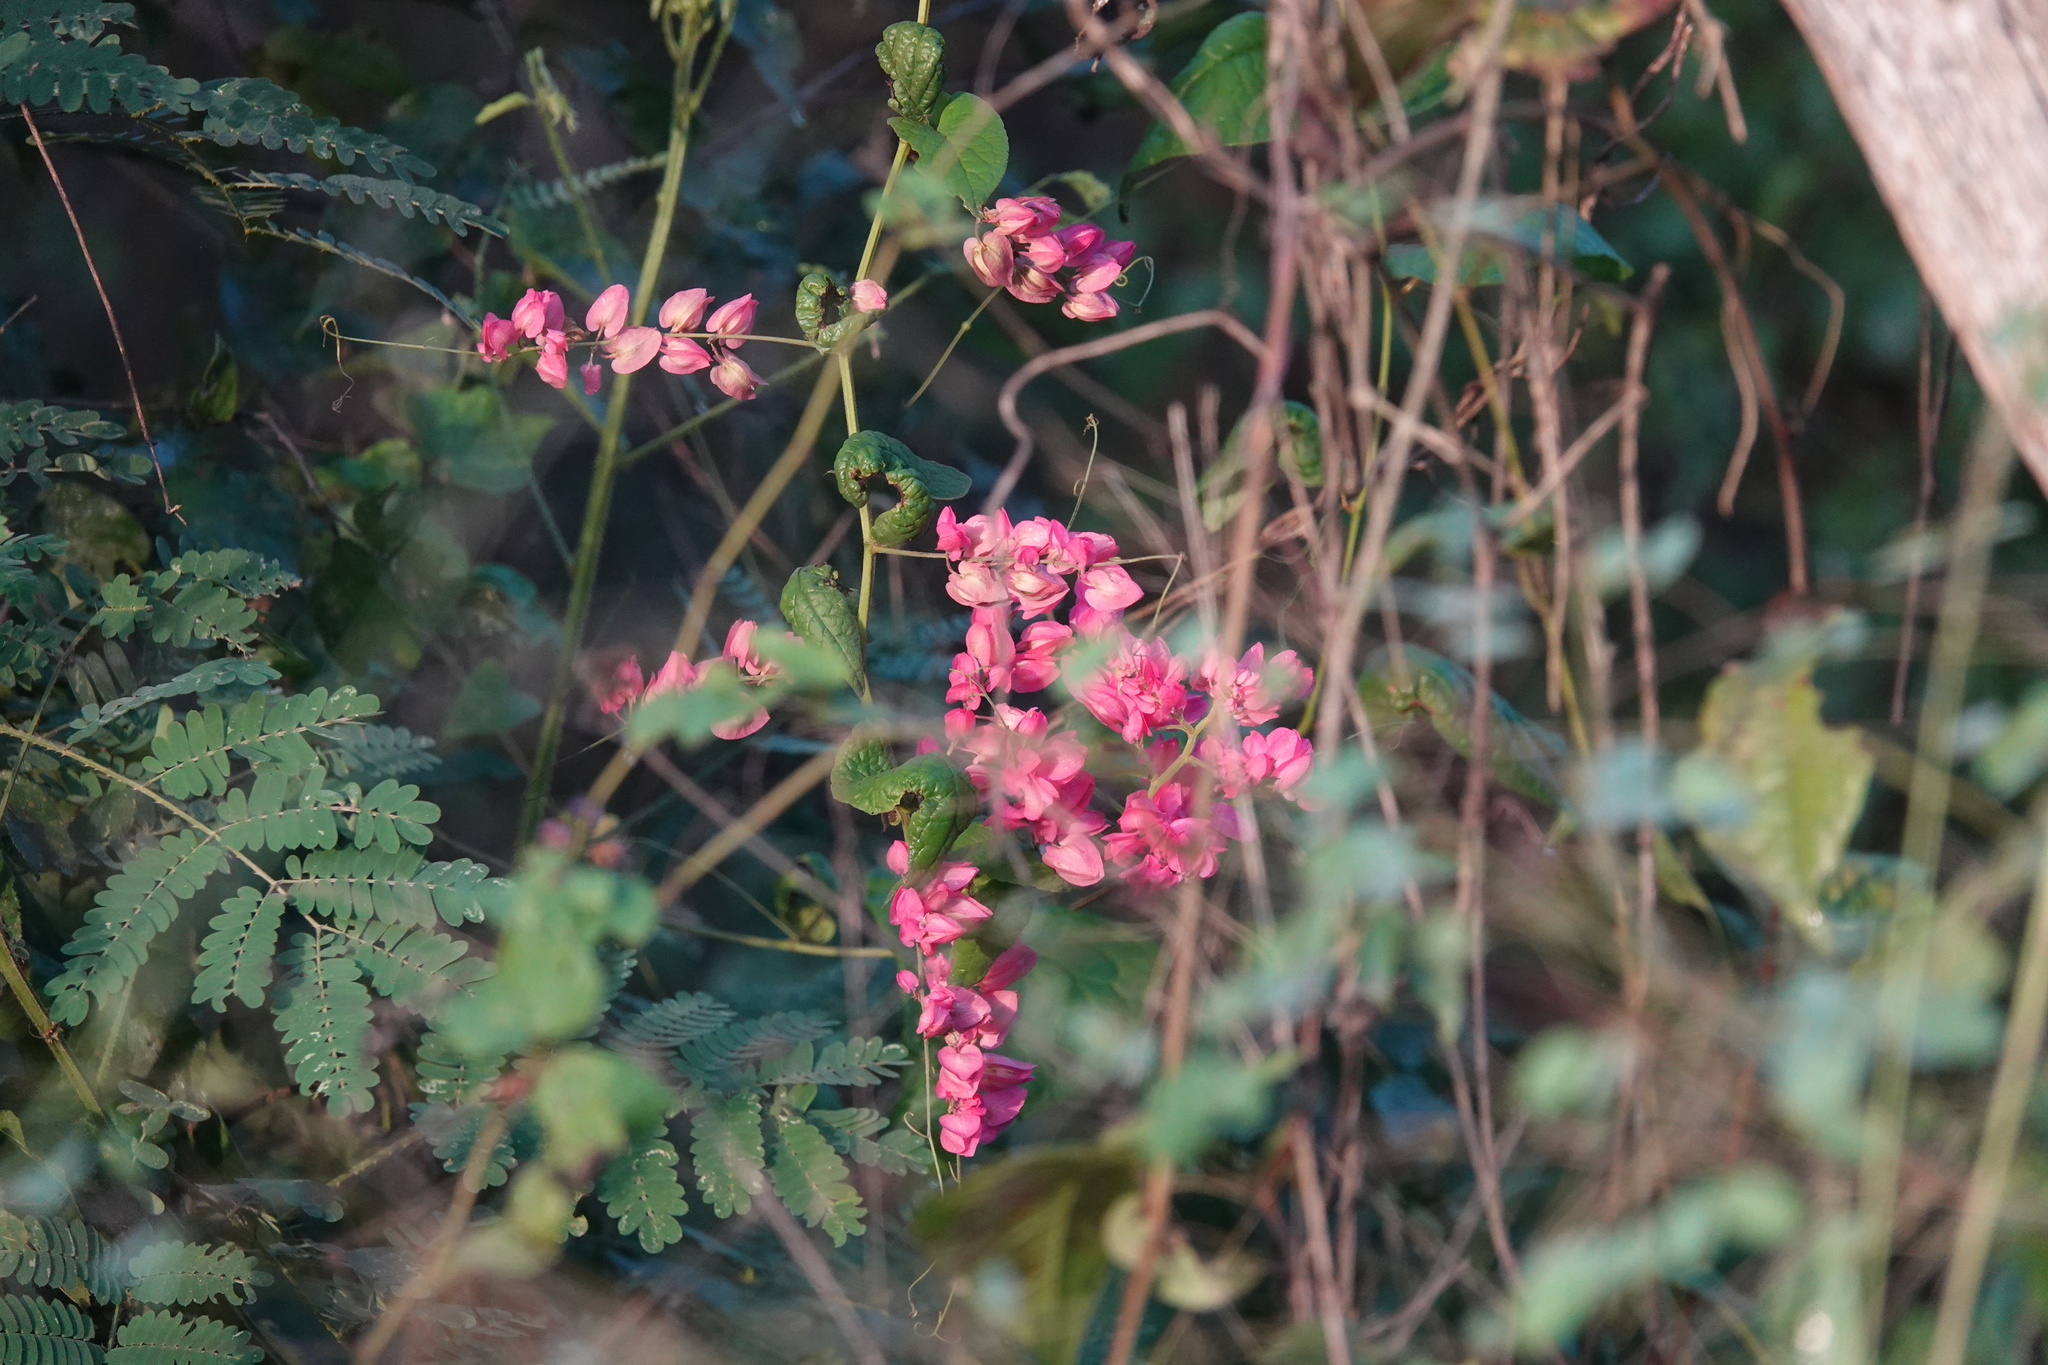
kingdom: Plantae
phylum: Tracheophyta
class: Magnoliopsida
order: Caryophyllales
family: Polygonaceae
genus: Antigonon
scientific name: Antigonon leptopus
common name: Coral vine
